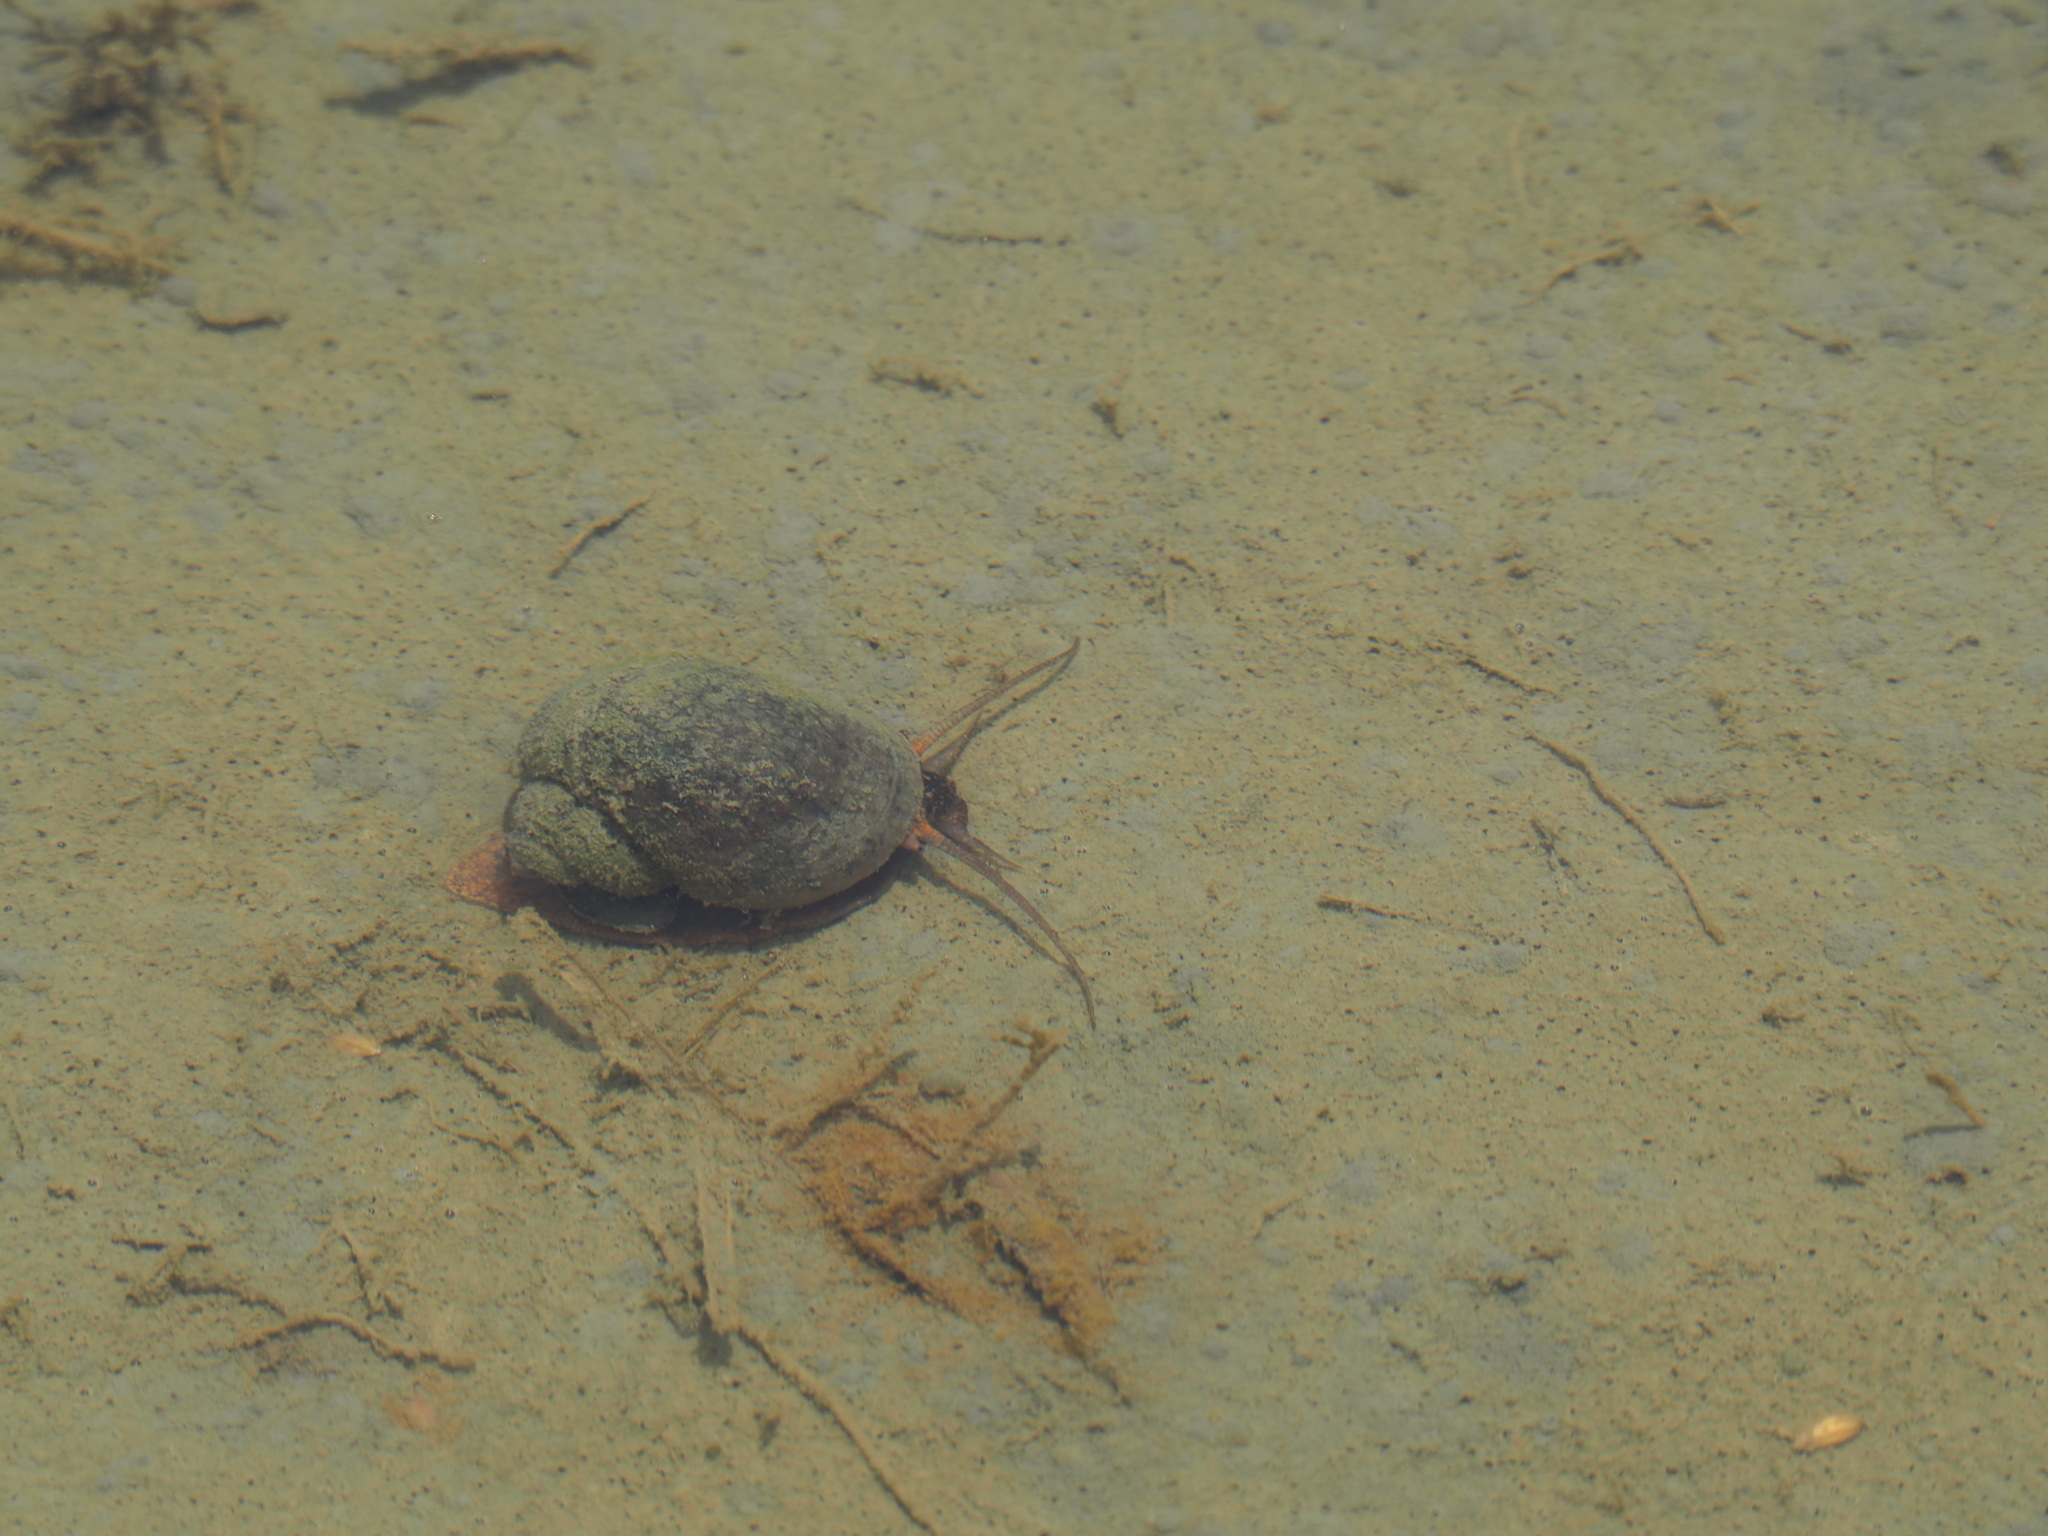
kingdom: Animalia
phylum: Mollusca
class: Gastropoda
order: Architaenioglossa
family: Ampullariidae
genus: Pomacea
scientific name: Pomacea canaliculata
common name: Channeled applesnail
